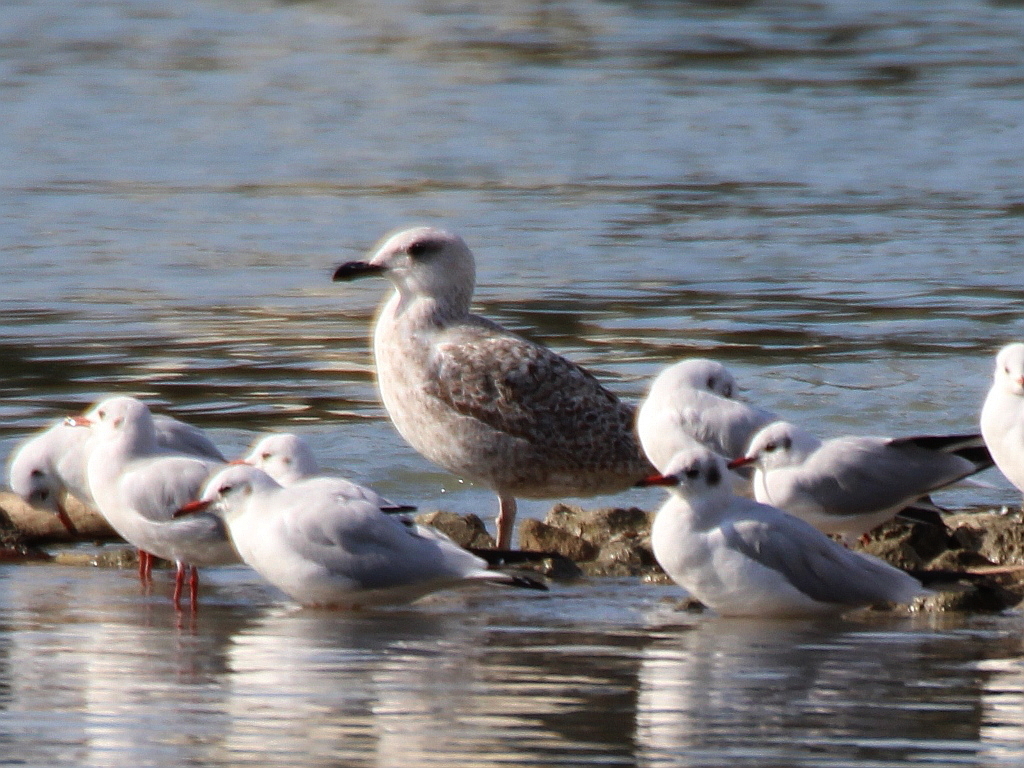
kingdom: Animalia
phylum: Chordata
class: Aves
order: Charadriiformes
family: Laridae
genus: Larus
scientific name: Larus michahellis
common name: Yellow-legged gull
